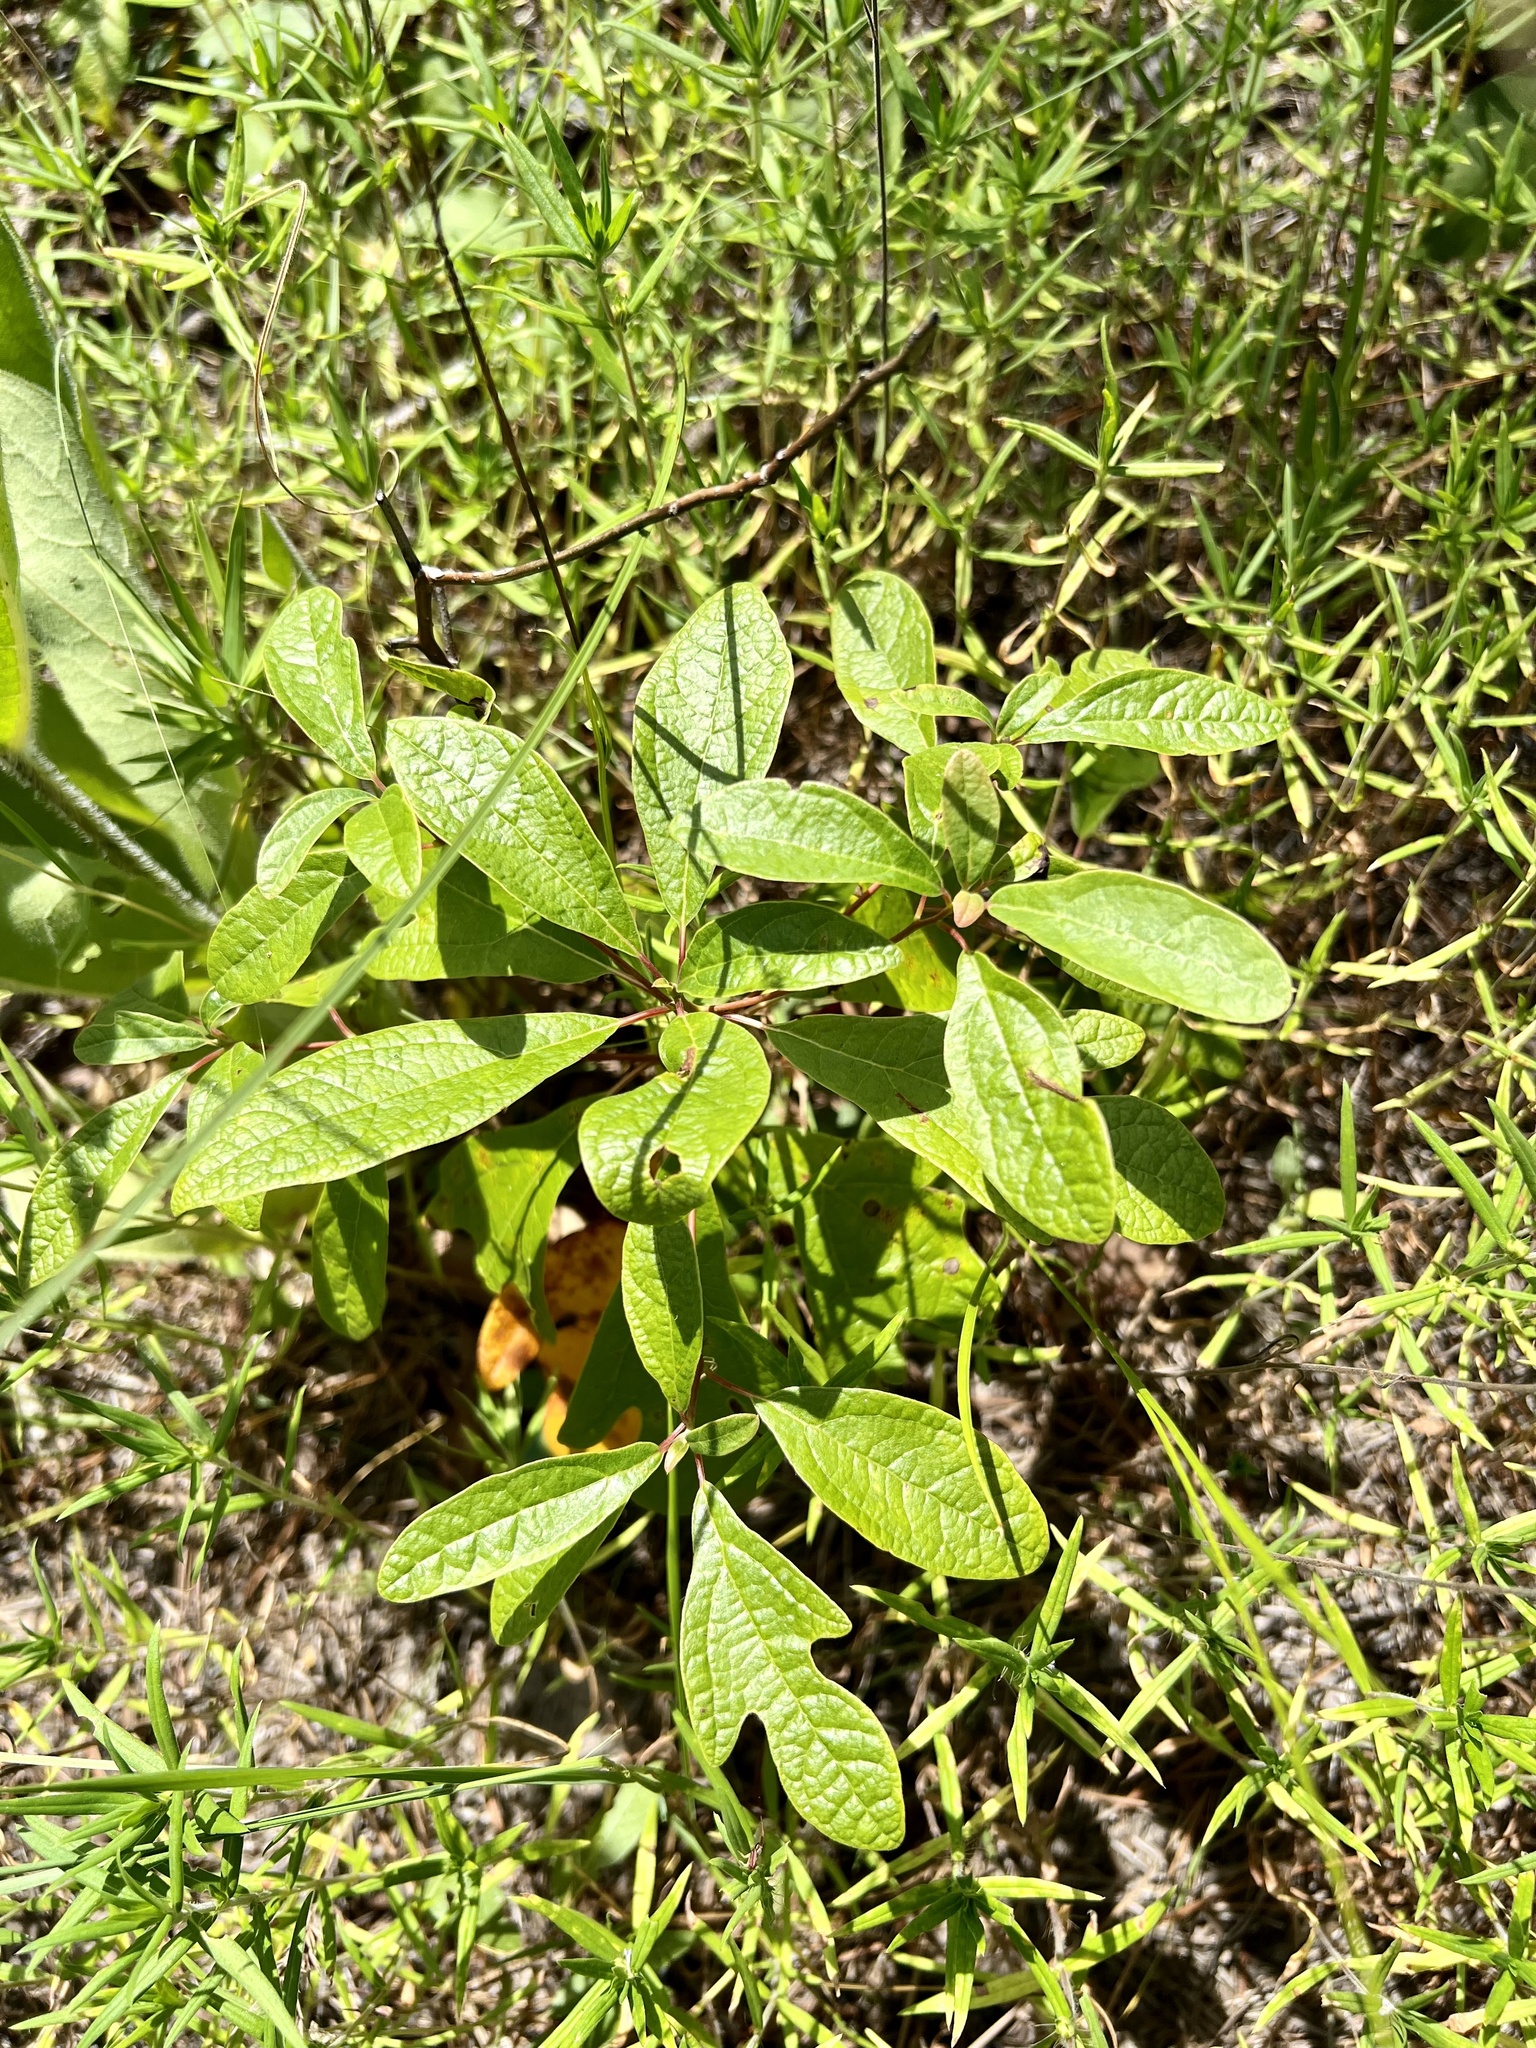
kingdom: Plantae
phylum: Tracheophyta
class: Magnoliopsida
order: Laurales
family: Lauraceae
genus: Sassafras
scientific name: Sassafras albidum
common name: Sassafras
